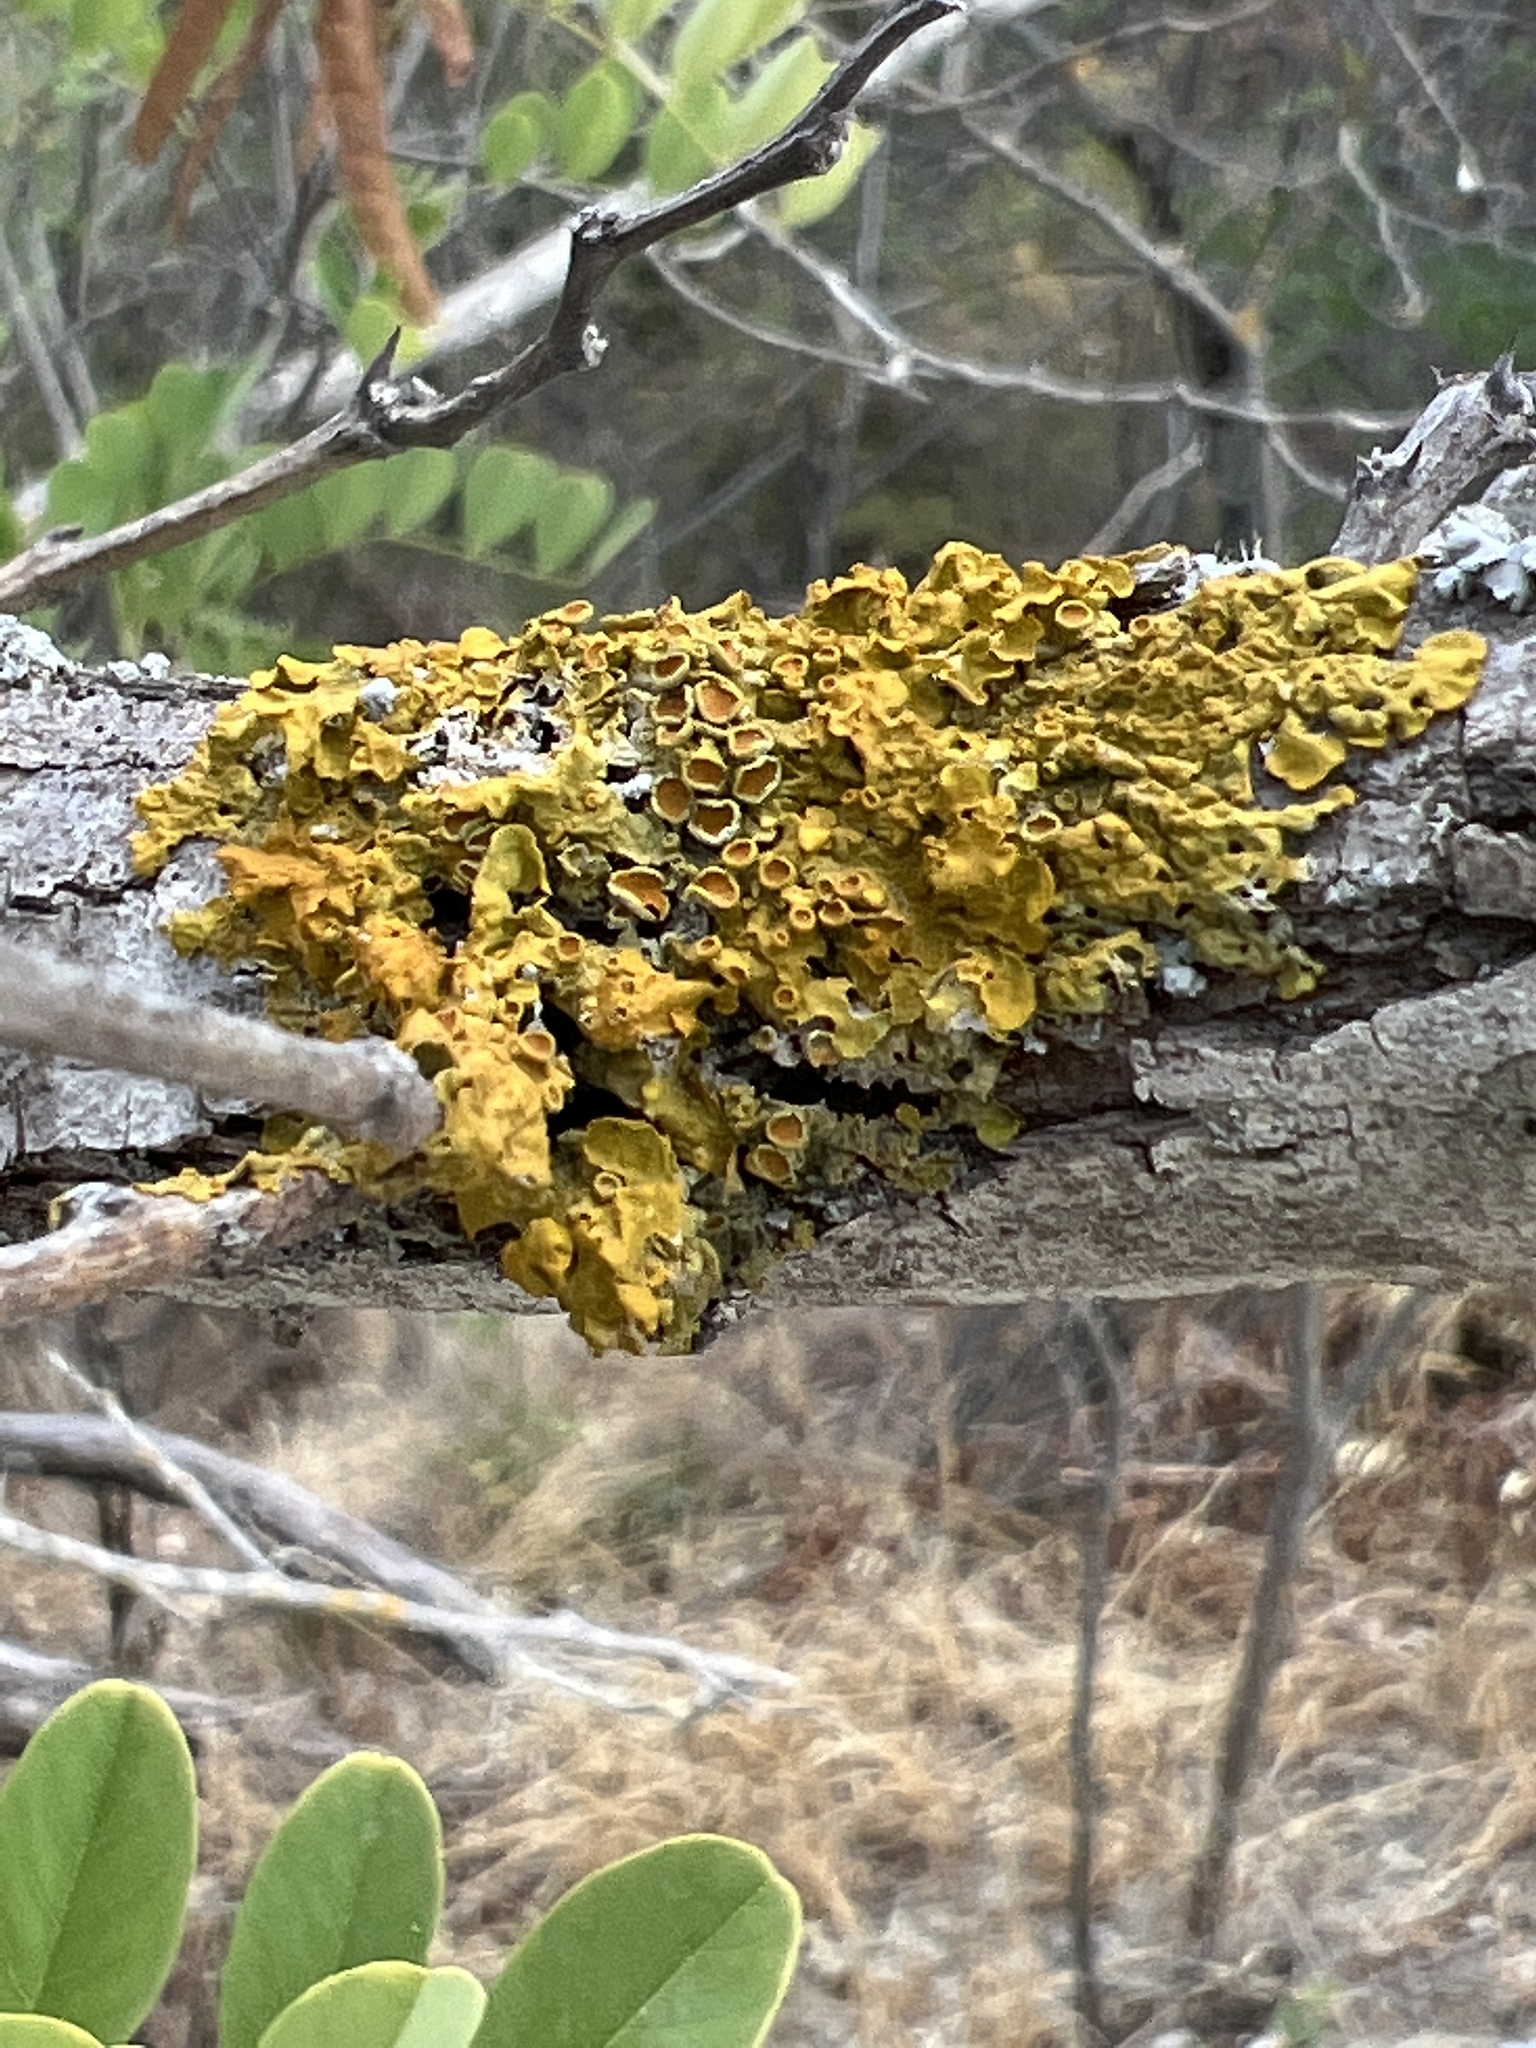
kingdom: Fungi
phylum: Ascomycota
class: Lecanoromycetes
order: Teloschistales
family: Teloschistaceae
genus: Xanthoria
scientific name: Xanthoria parietina
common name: Common orange lichen
